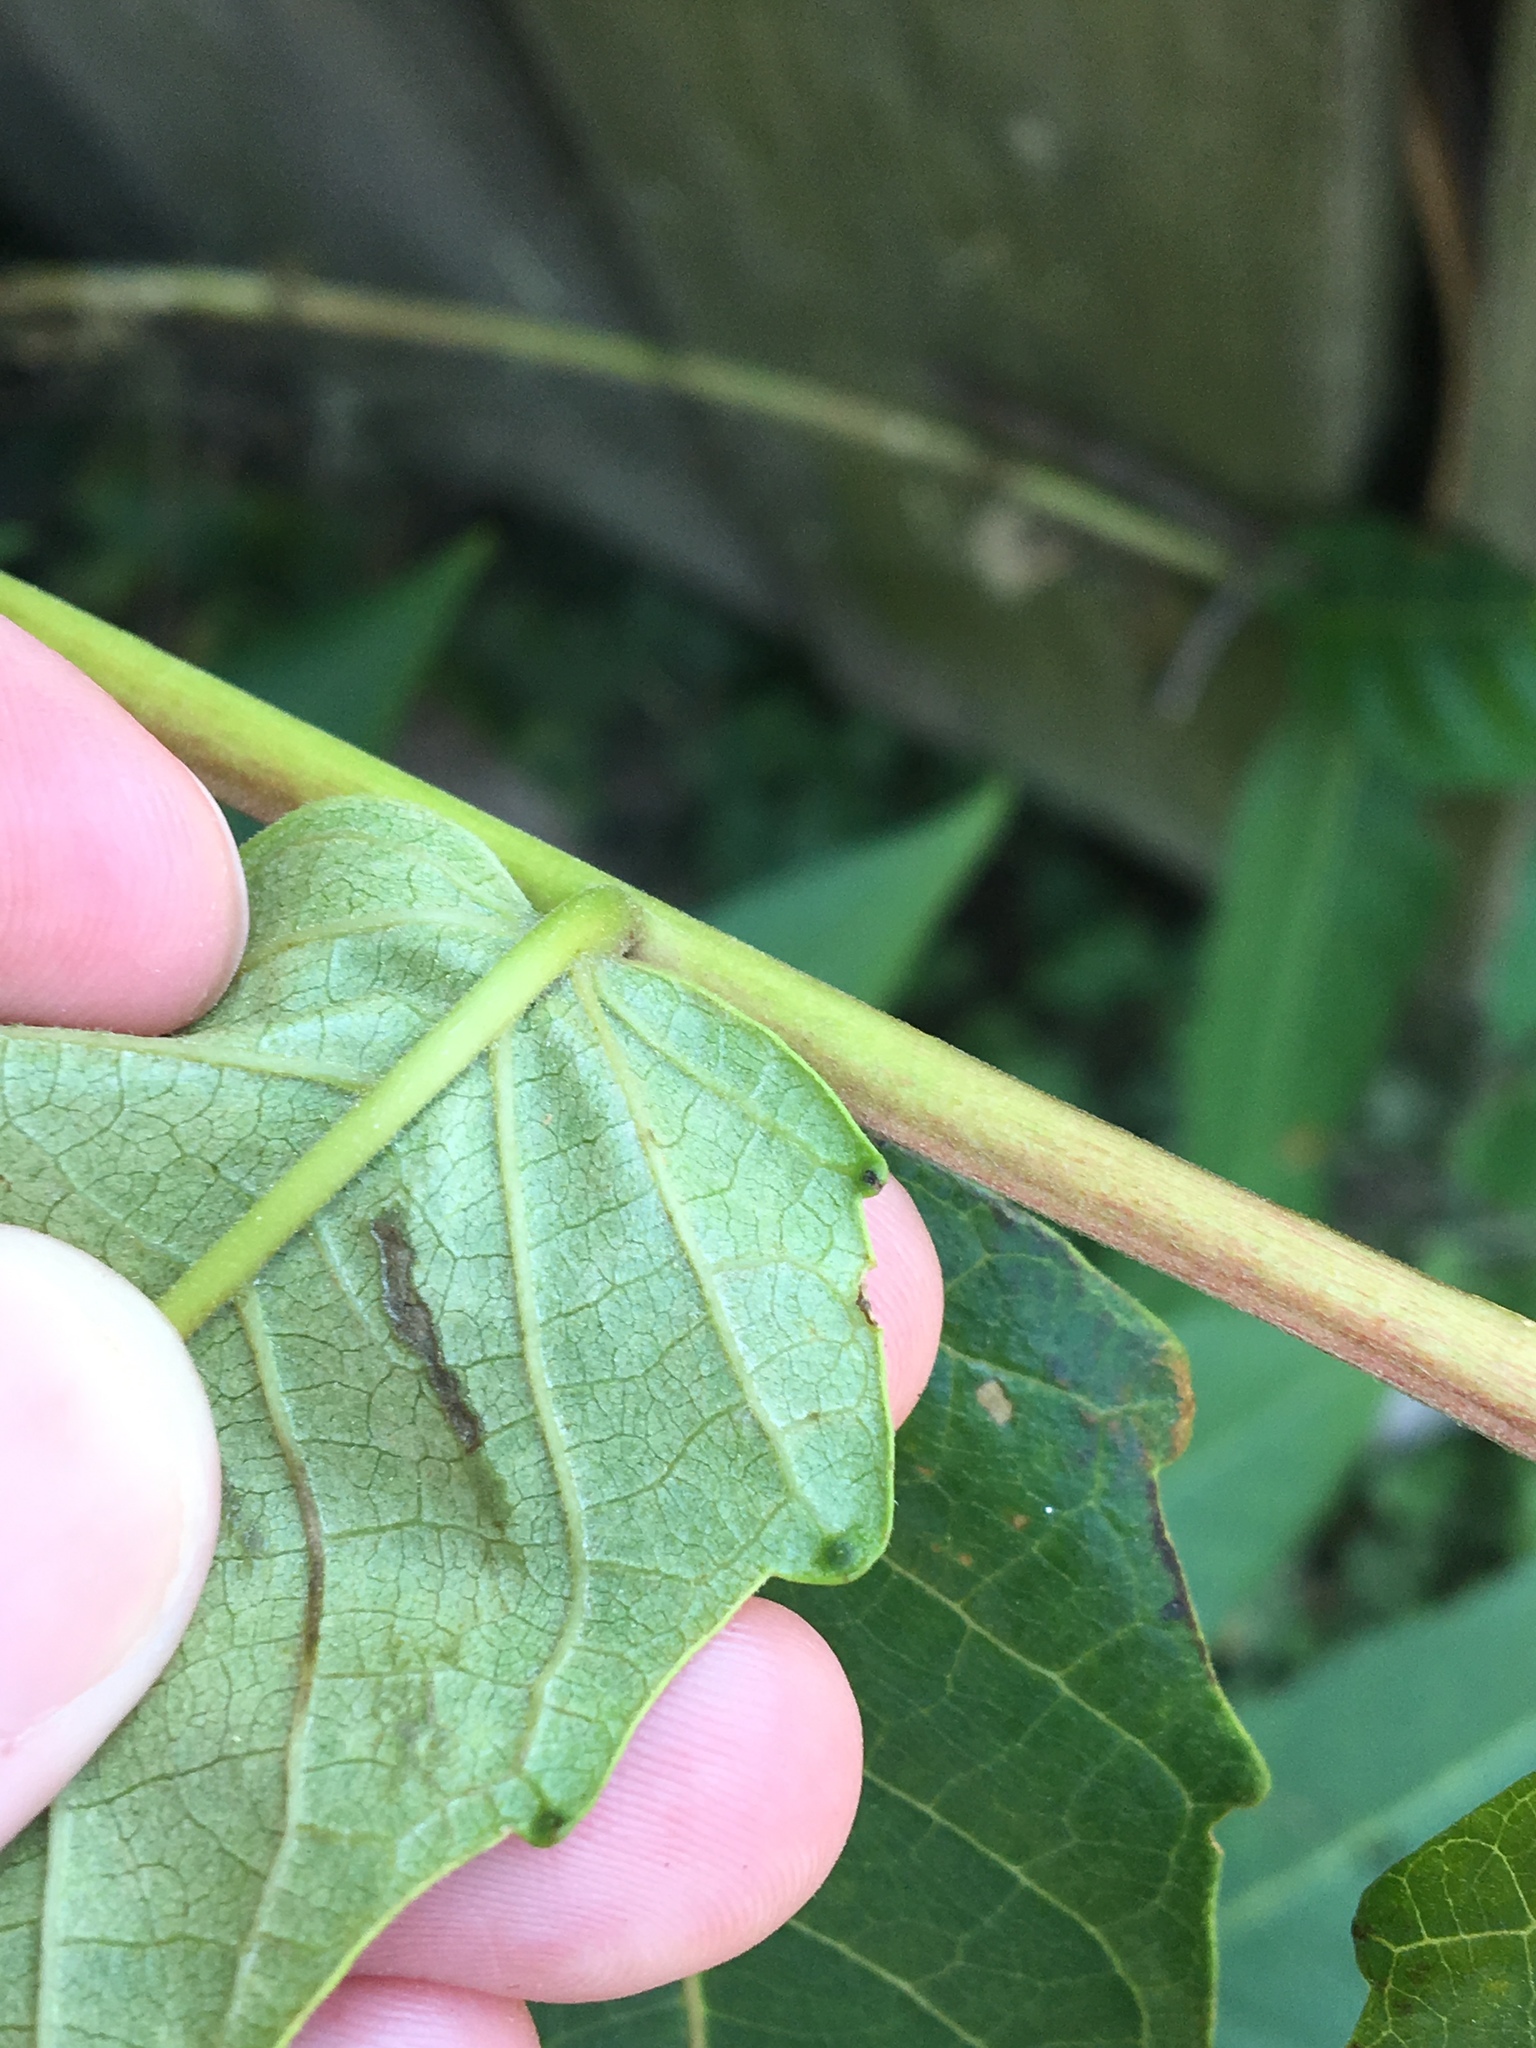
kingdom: Plantae
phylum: Tracheophyta
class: Magnoliopsida
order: Sapindales
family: Simaroubaceae
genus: Ailanthus
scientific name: Ailanthus altissima
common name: Tree-of-heaven
